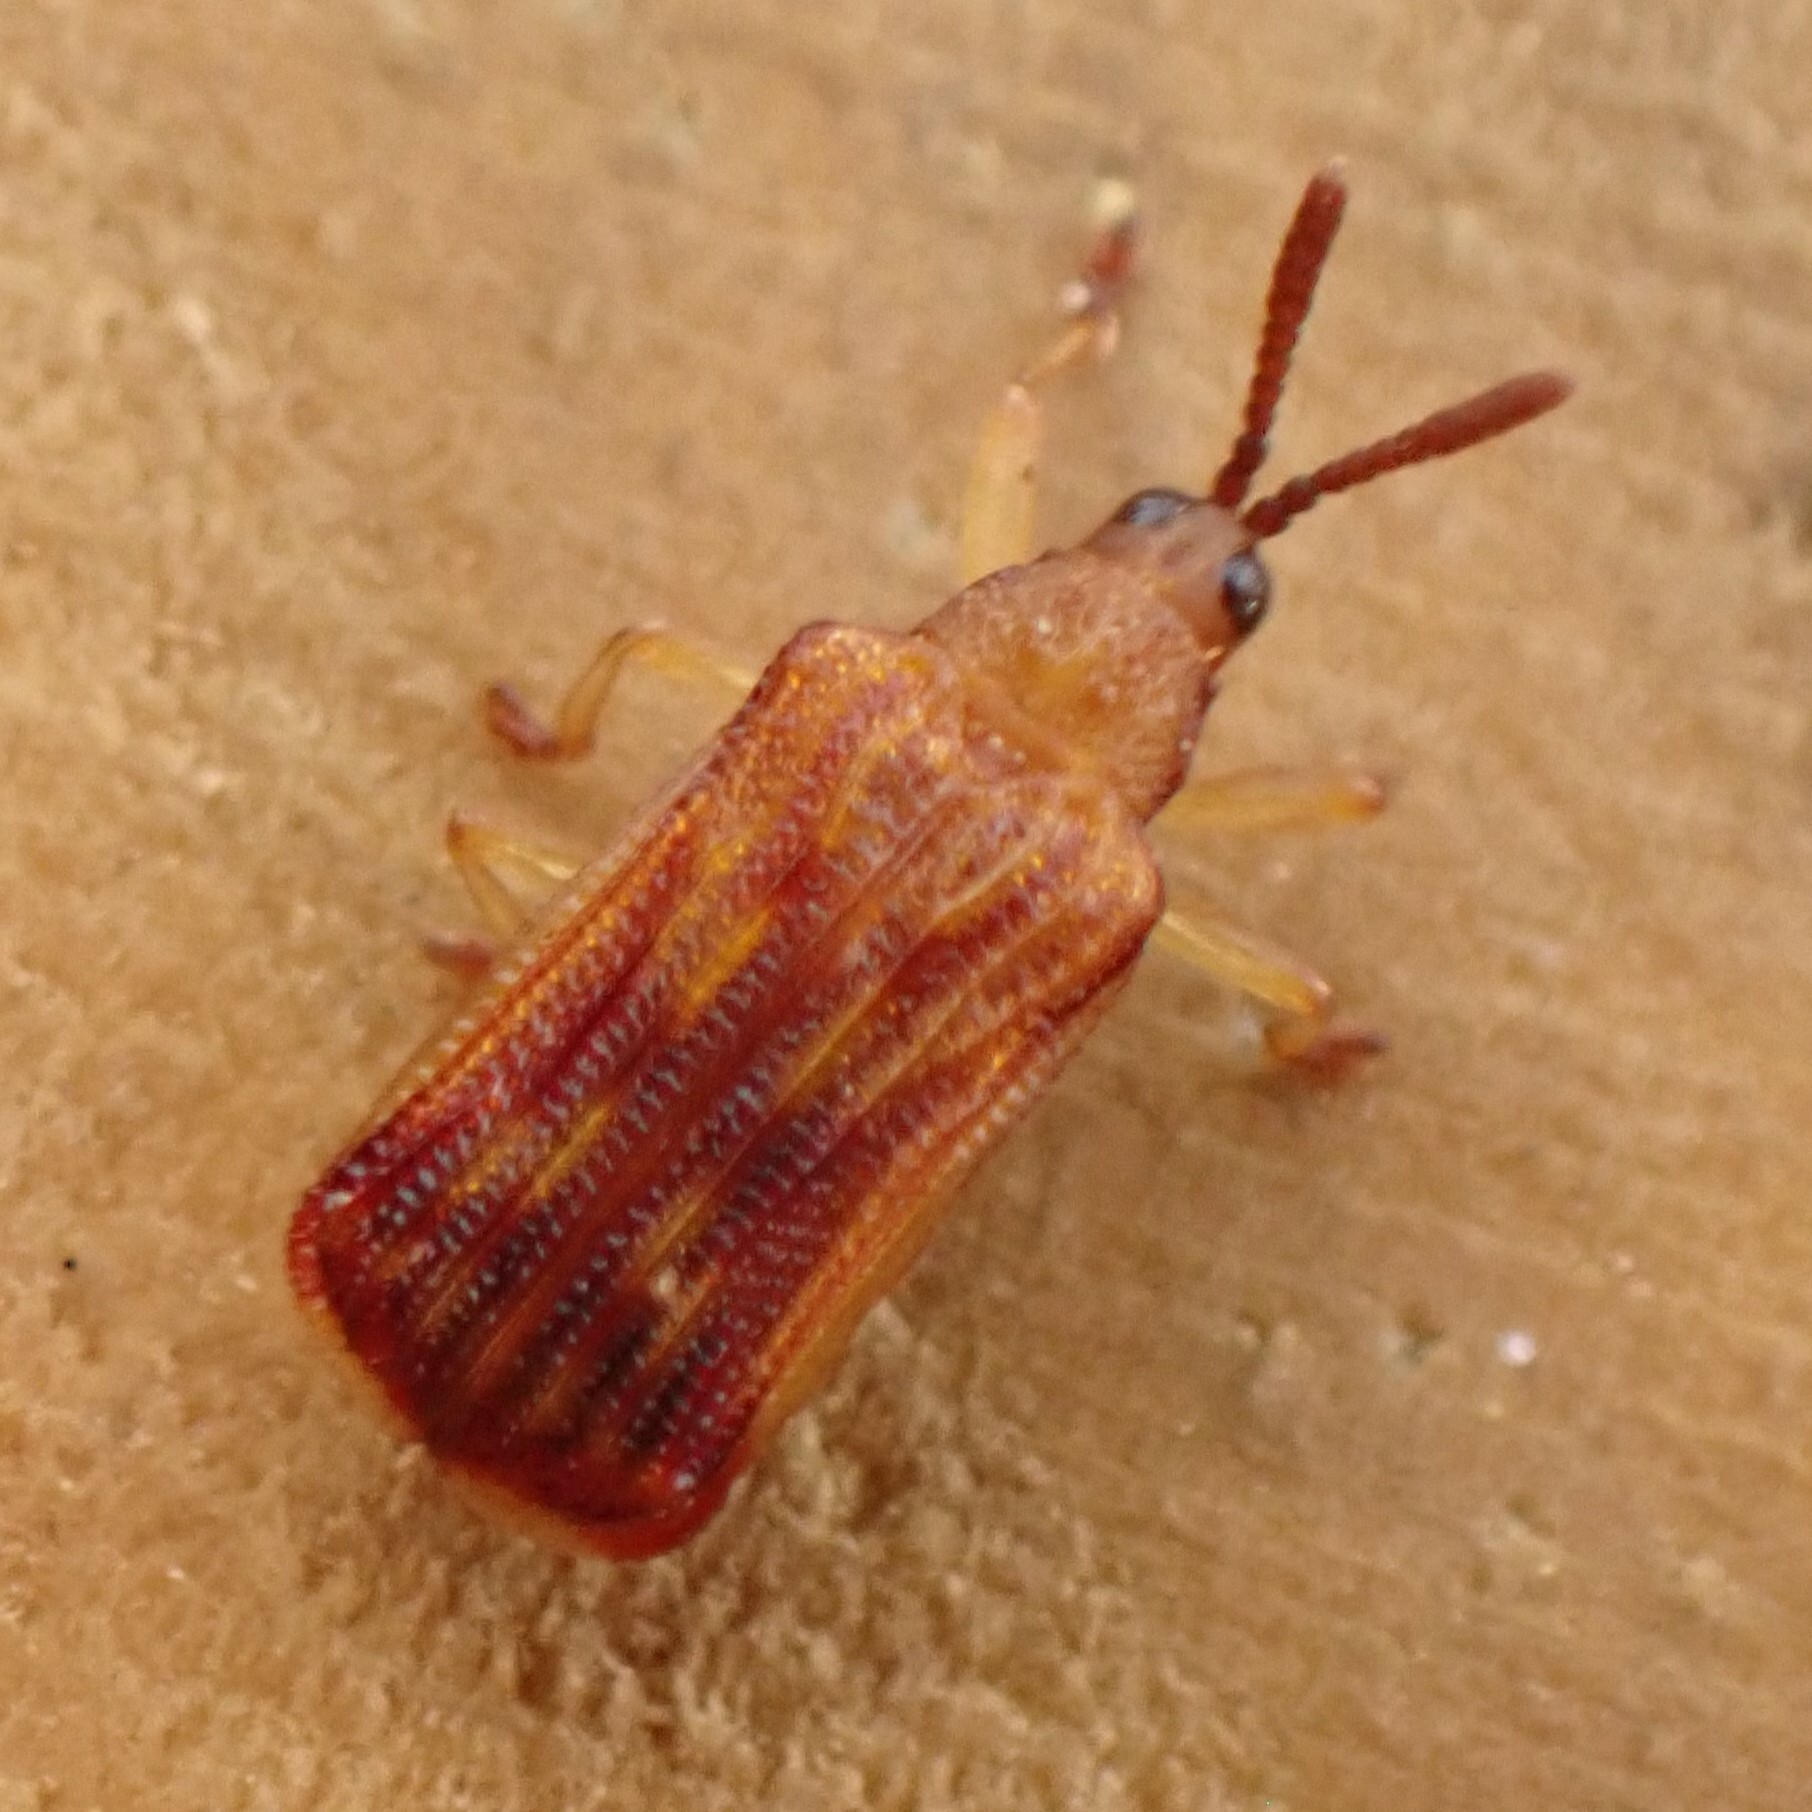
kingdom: Animalia
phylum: Arthropoda
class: Insecta
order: Coleoptera
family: Chrysomelidae
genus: Baliosus
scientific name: Baliosus nervosus
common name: Basswood leaf miner
